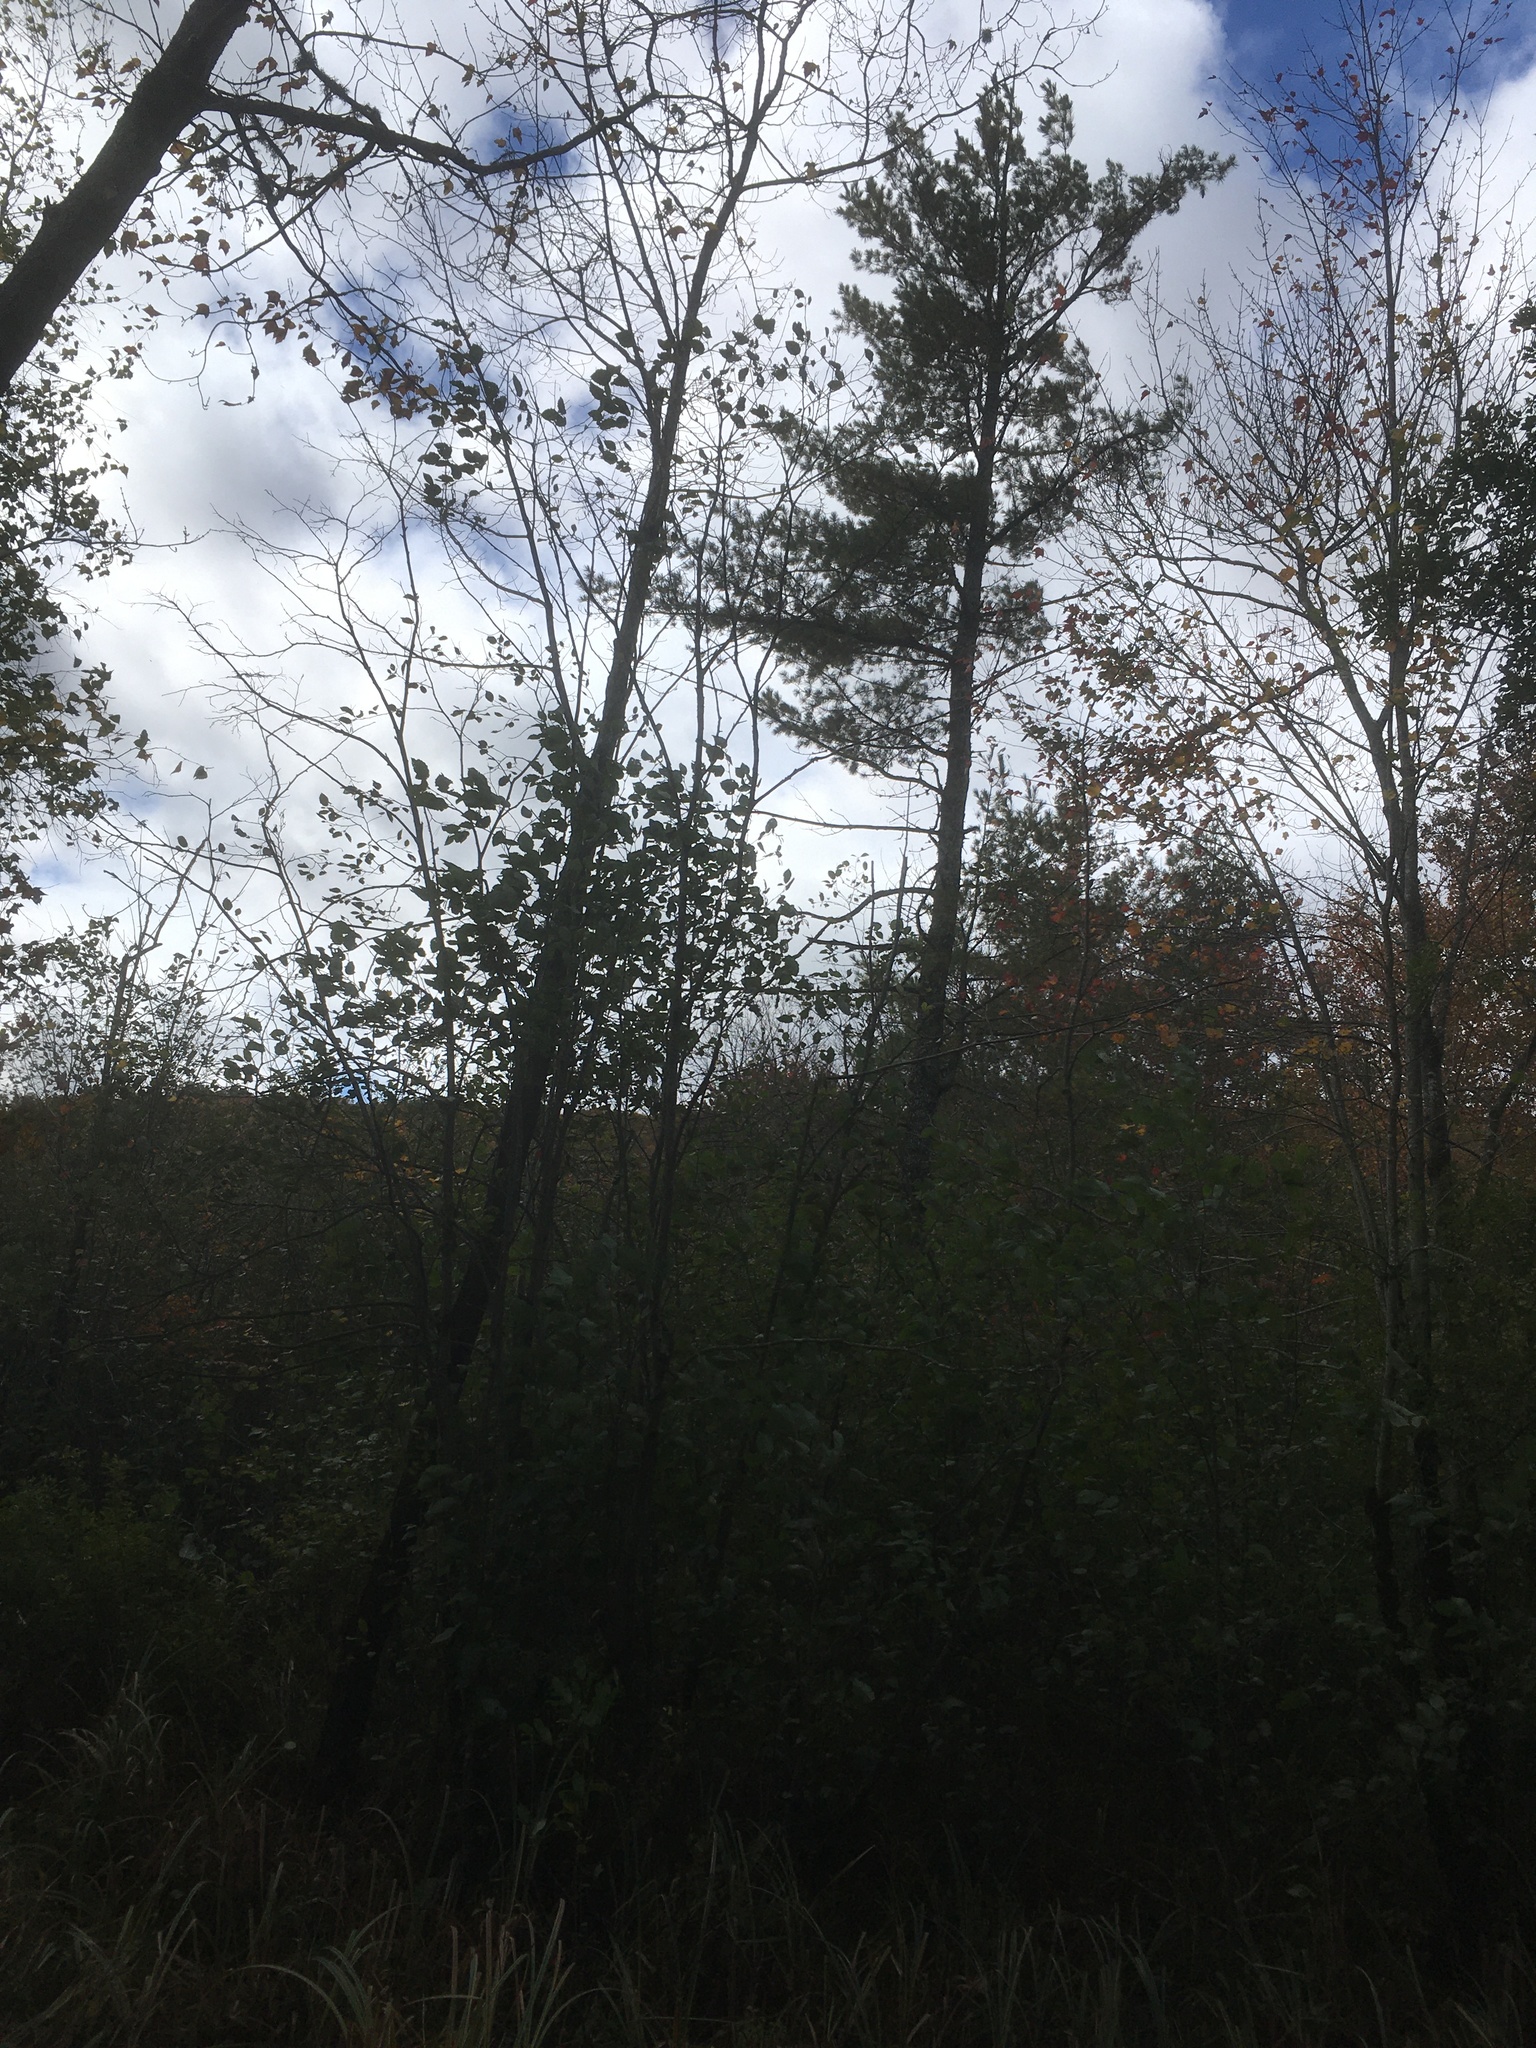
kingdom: Plantae
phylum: Tracheophyta
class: Pinopsida
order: Pinales
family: Pinaceae
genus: Pinus
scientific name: Pinus strobus
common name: Weymouth pine
